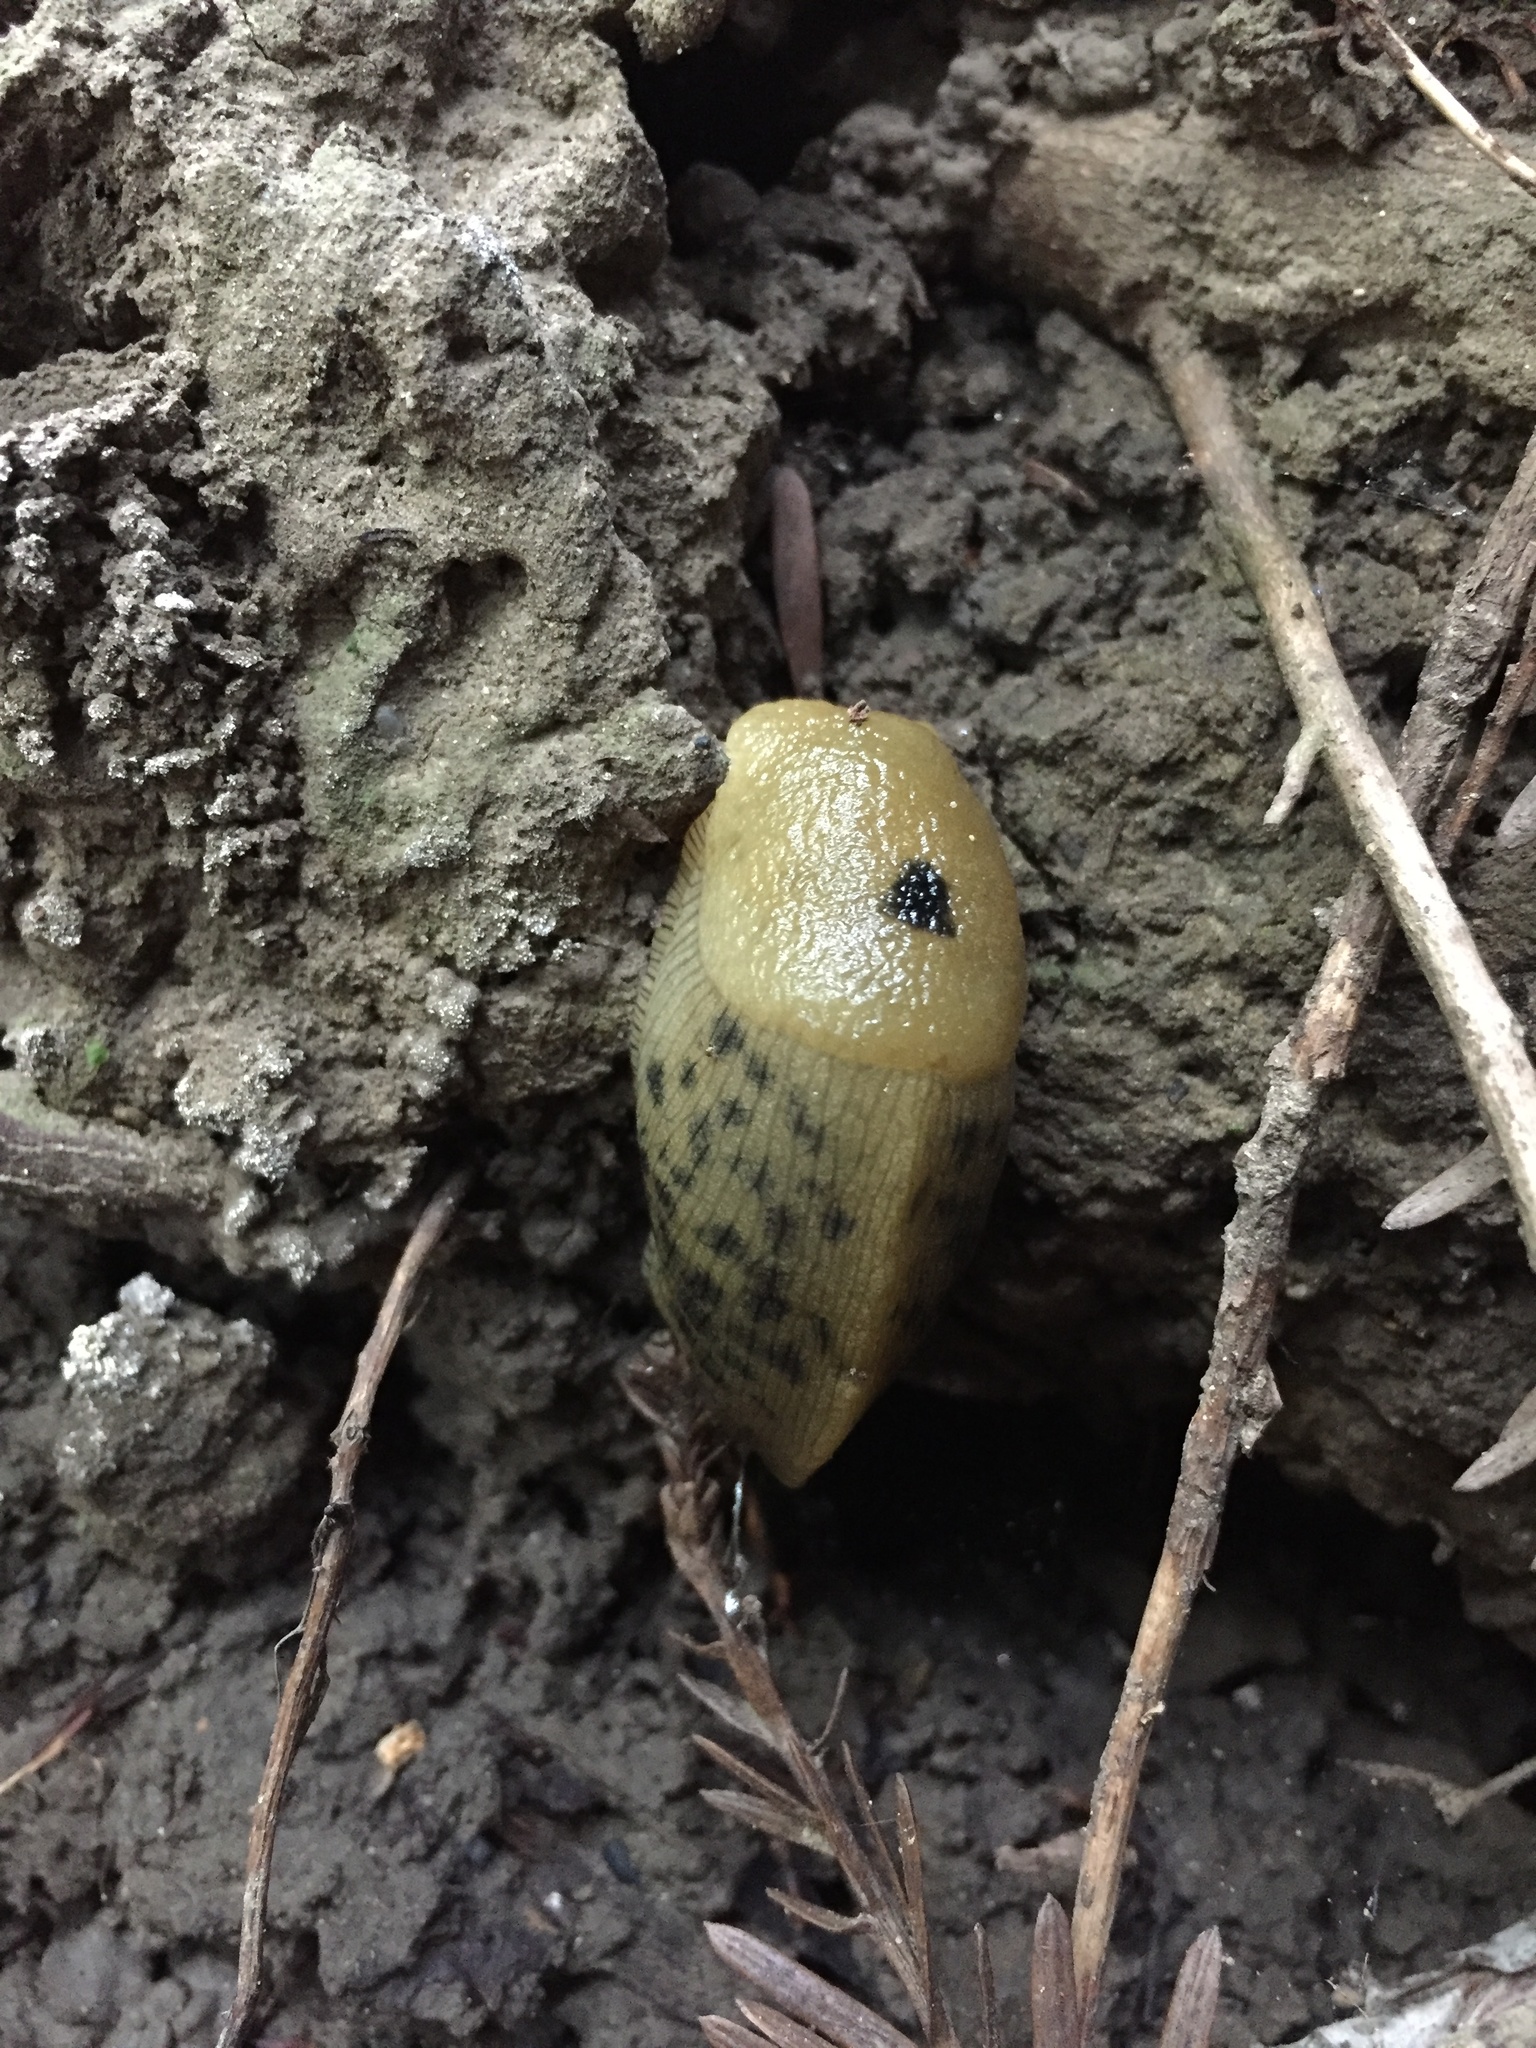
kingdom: Animalia
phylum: Mollusca
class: Gastropoda
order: Stylommatophora
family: Ariolimacidae
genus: Ariolimax
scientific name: Ariolimax buttoni
